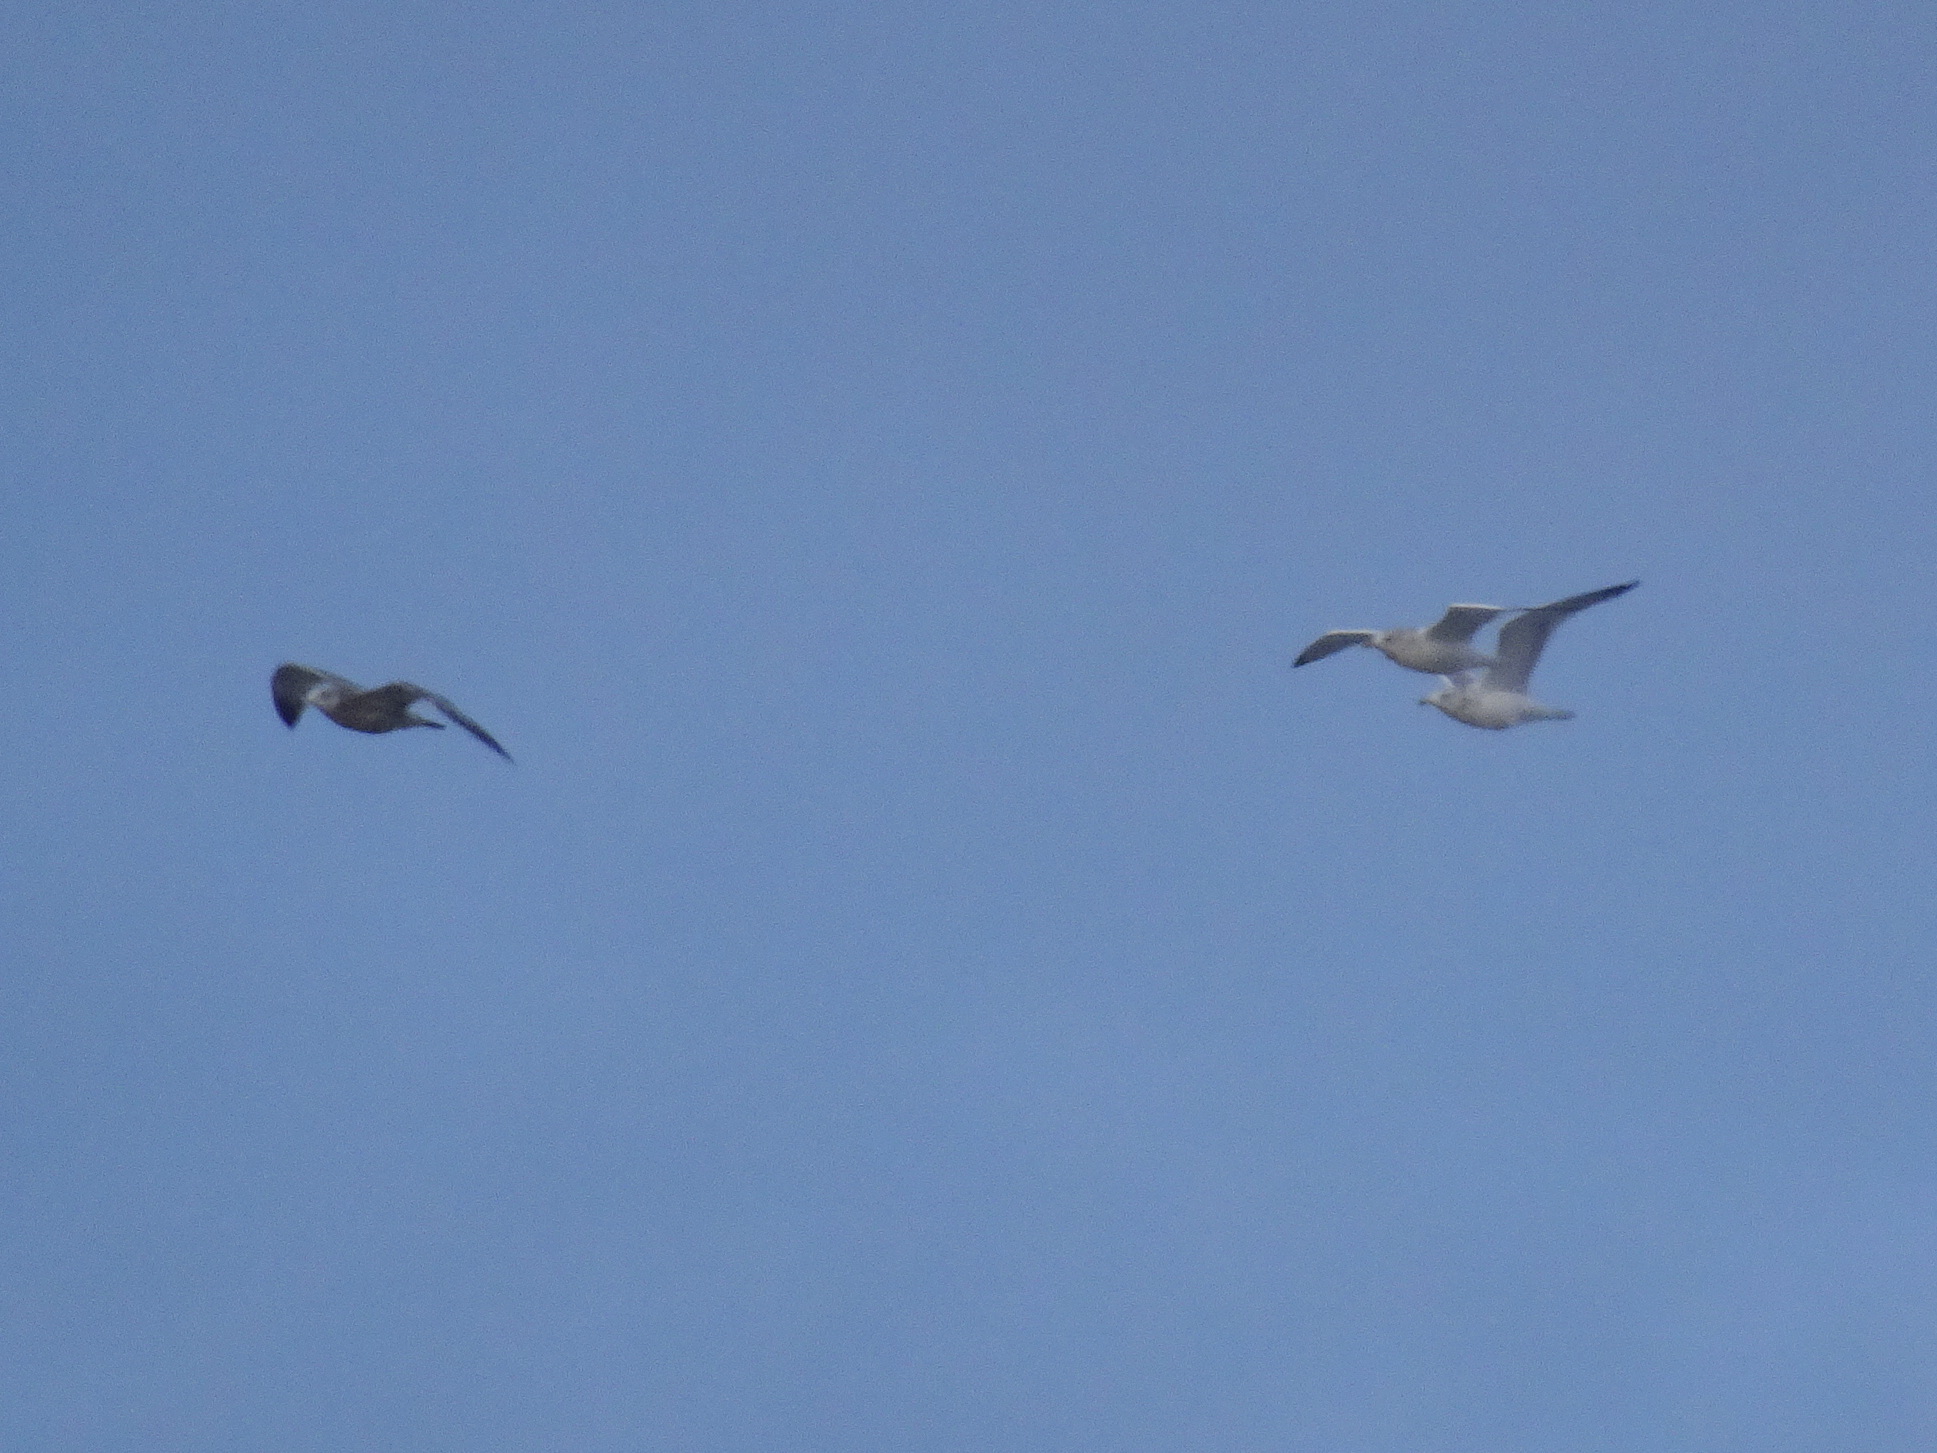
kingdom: Animalia
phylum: Chordata
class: Aves
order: Charadriiformes
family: Laridae
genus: Larus
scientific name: Larus argentatus
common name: Herring gull
